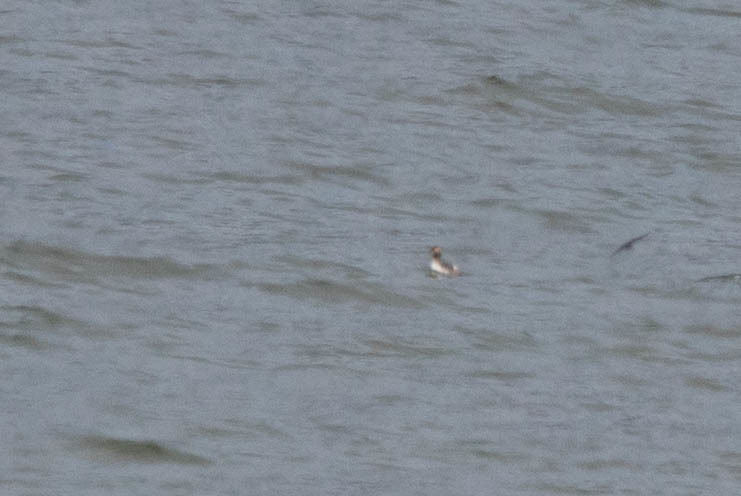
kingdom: Animalia
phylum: Chordata
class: Aves
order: Podicipediformes
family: Podicipedidae
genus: Podiceps
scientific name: Podiceps auritus
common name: Horned grebe
